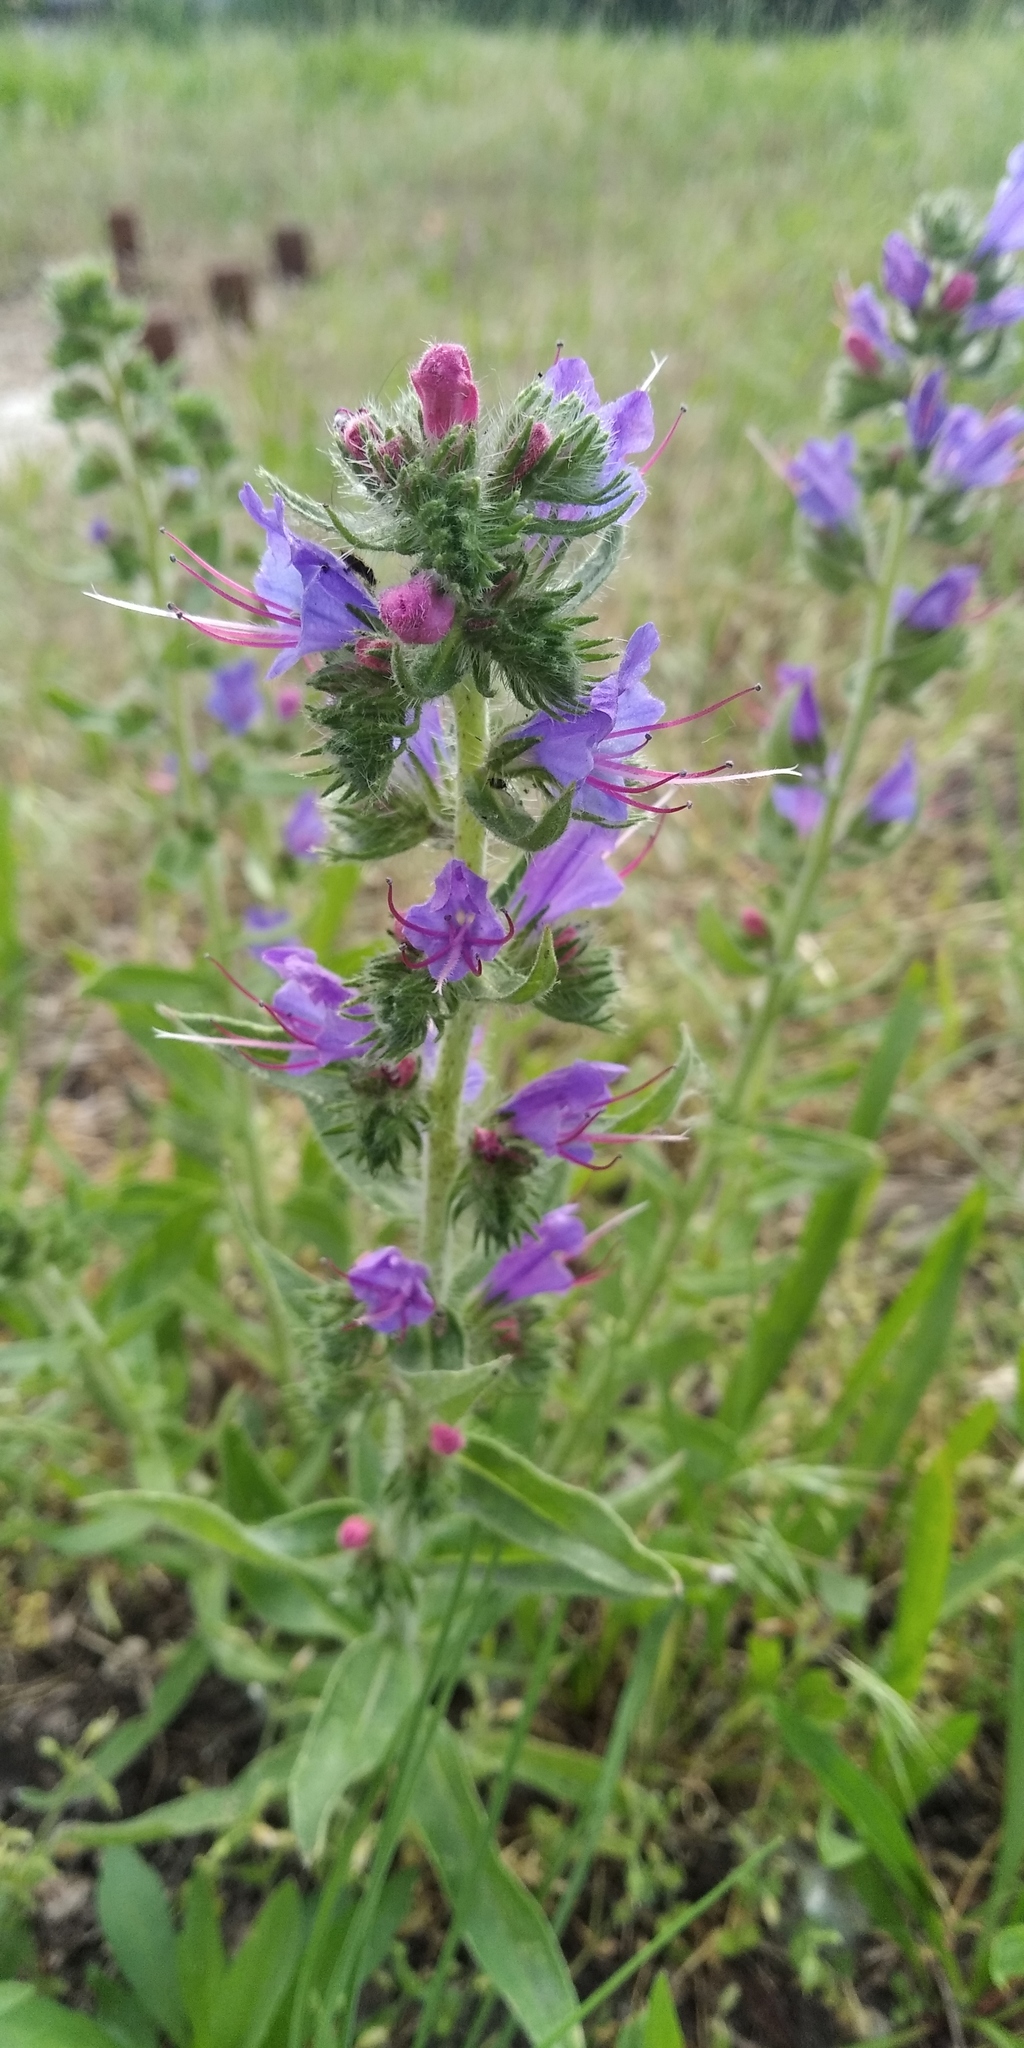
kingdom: Plantae
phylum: Tracheophyta
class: Magnoliopsida
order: Boraginales
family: Boraginaceae
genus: Echium
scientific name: Echium vulgare
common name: Common viper's bugloss
